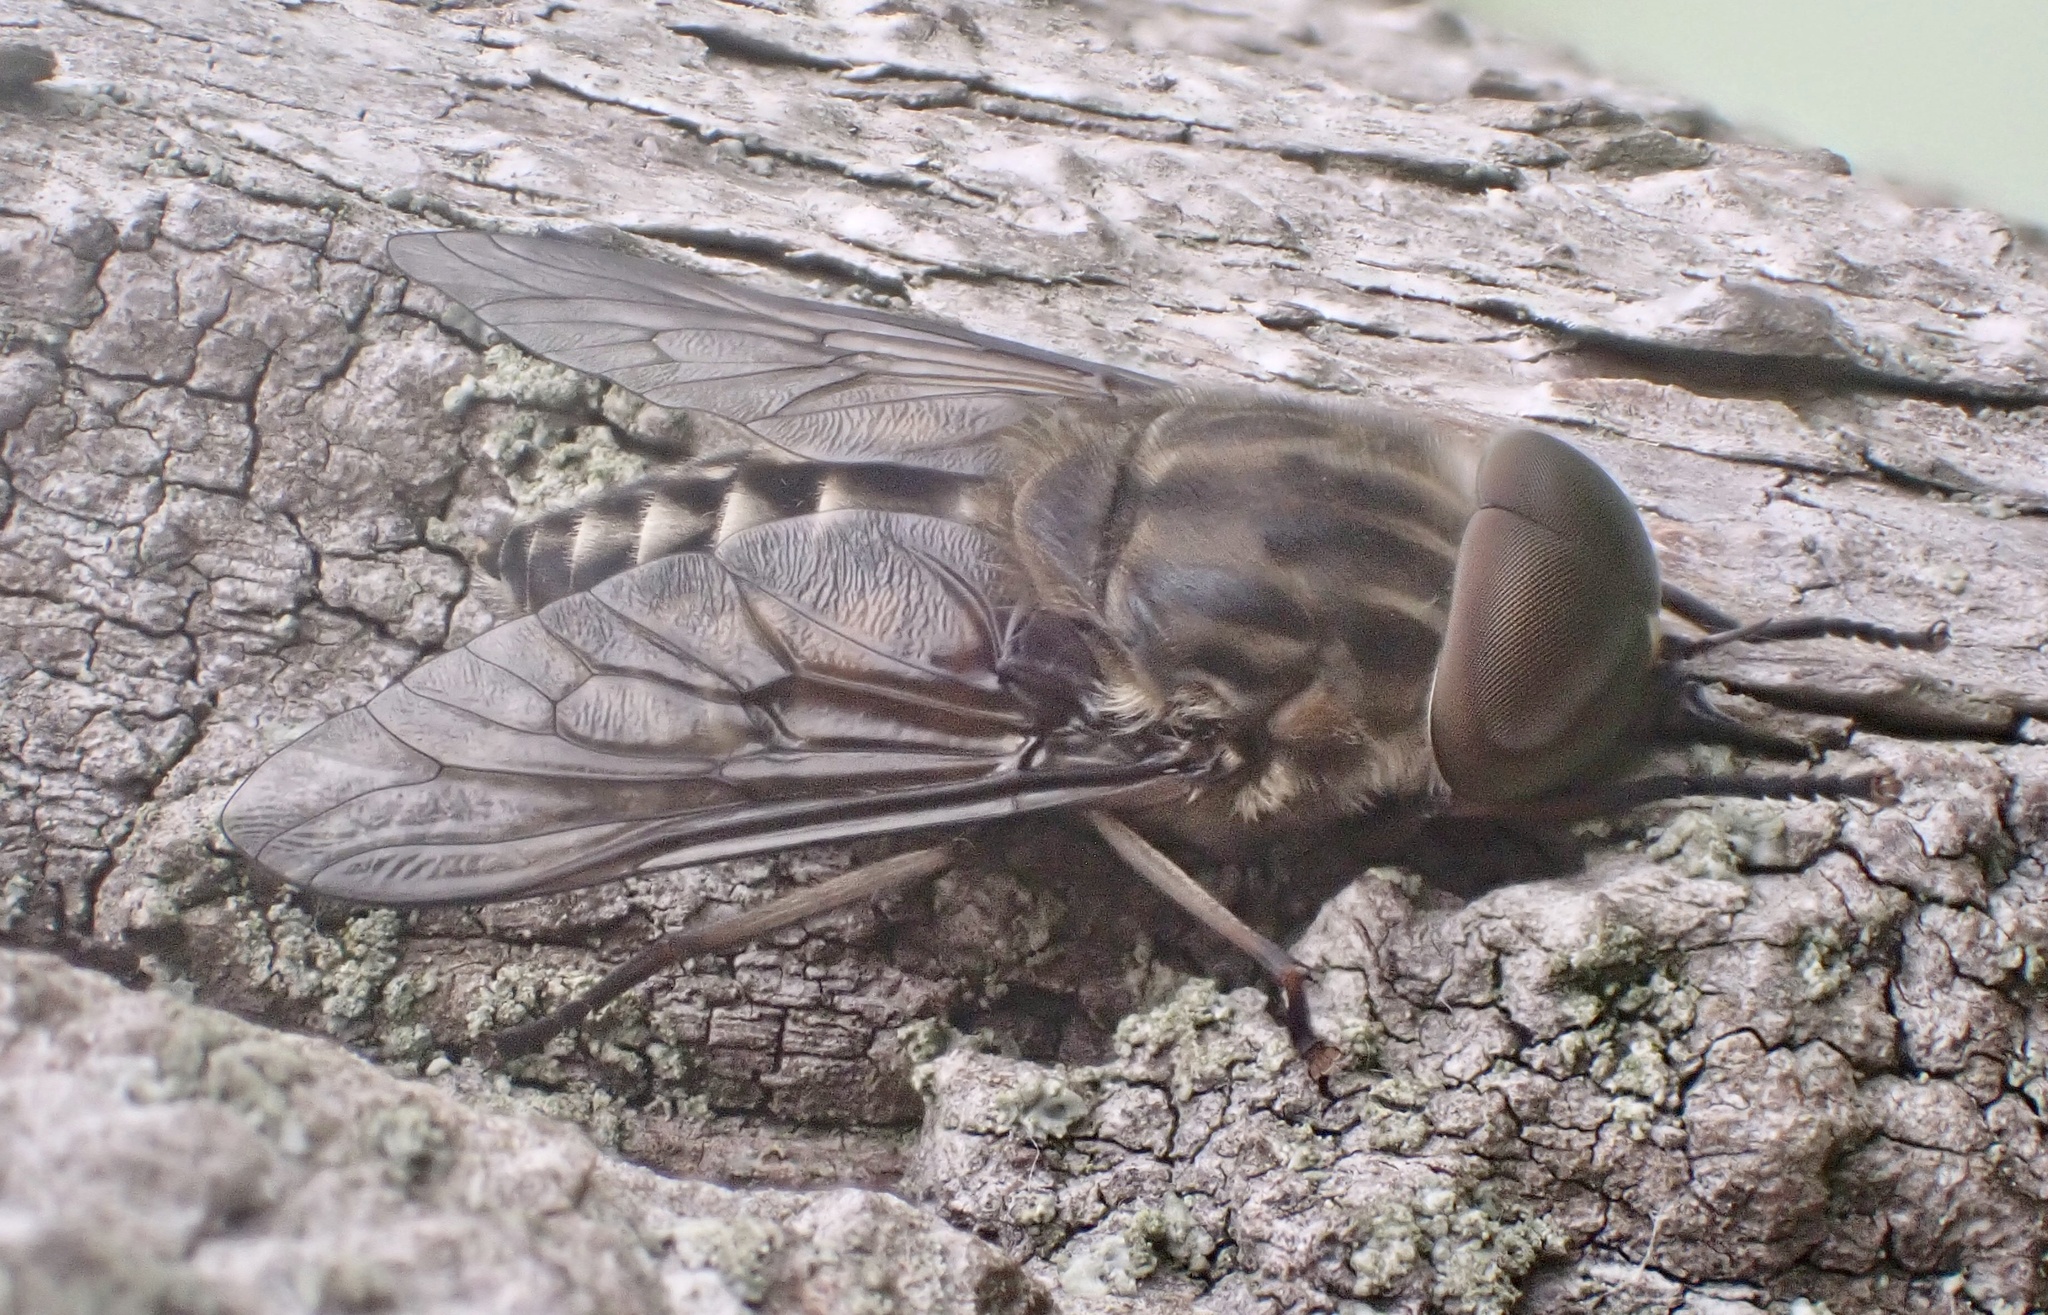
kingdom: Animalia
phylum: Arthropoda
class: Insecta
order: Diptera
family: Tabanidae
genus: Tabanus
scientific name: Tabanus autumnalis
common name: Large marsh horsefly
